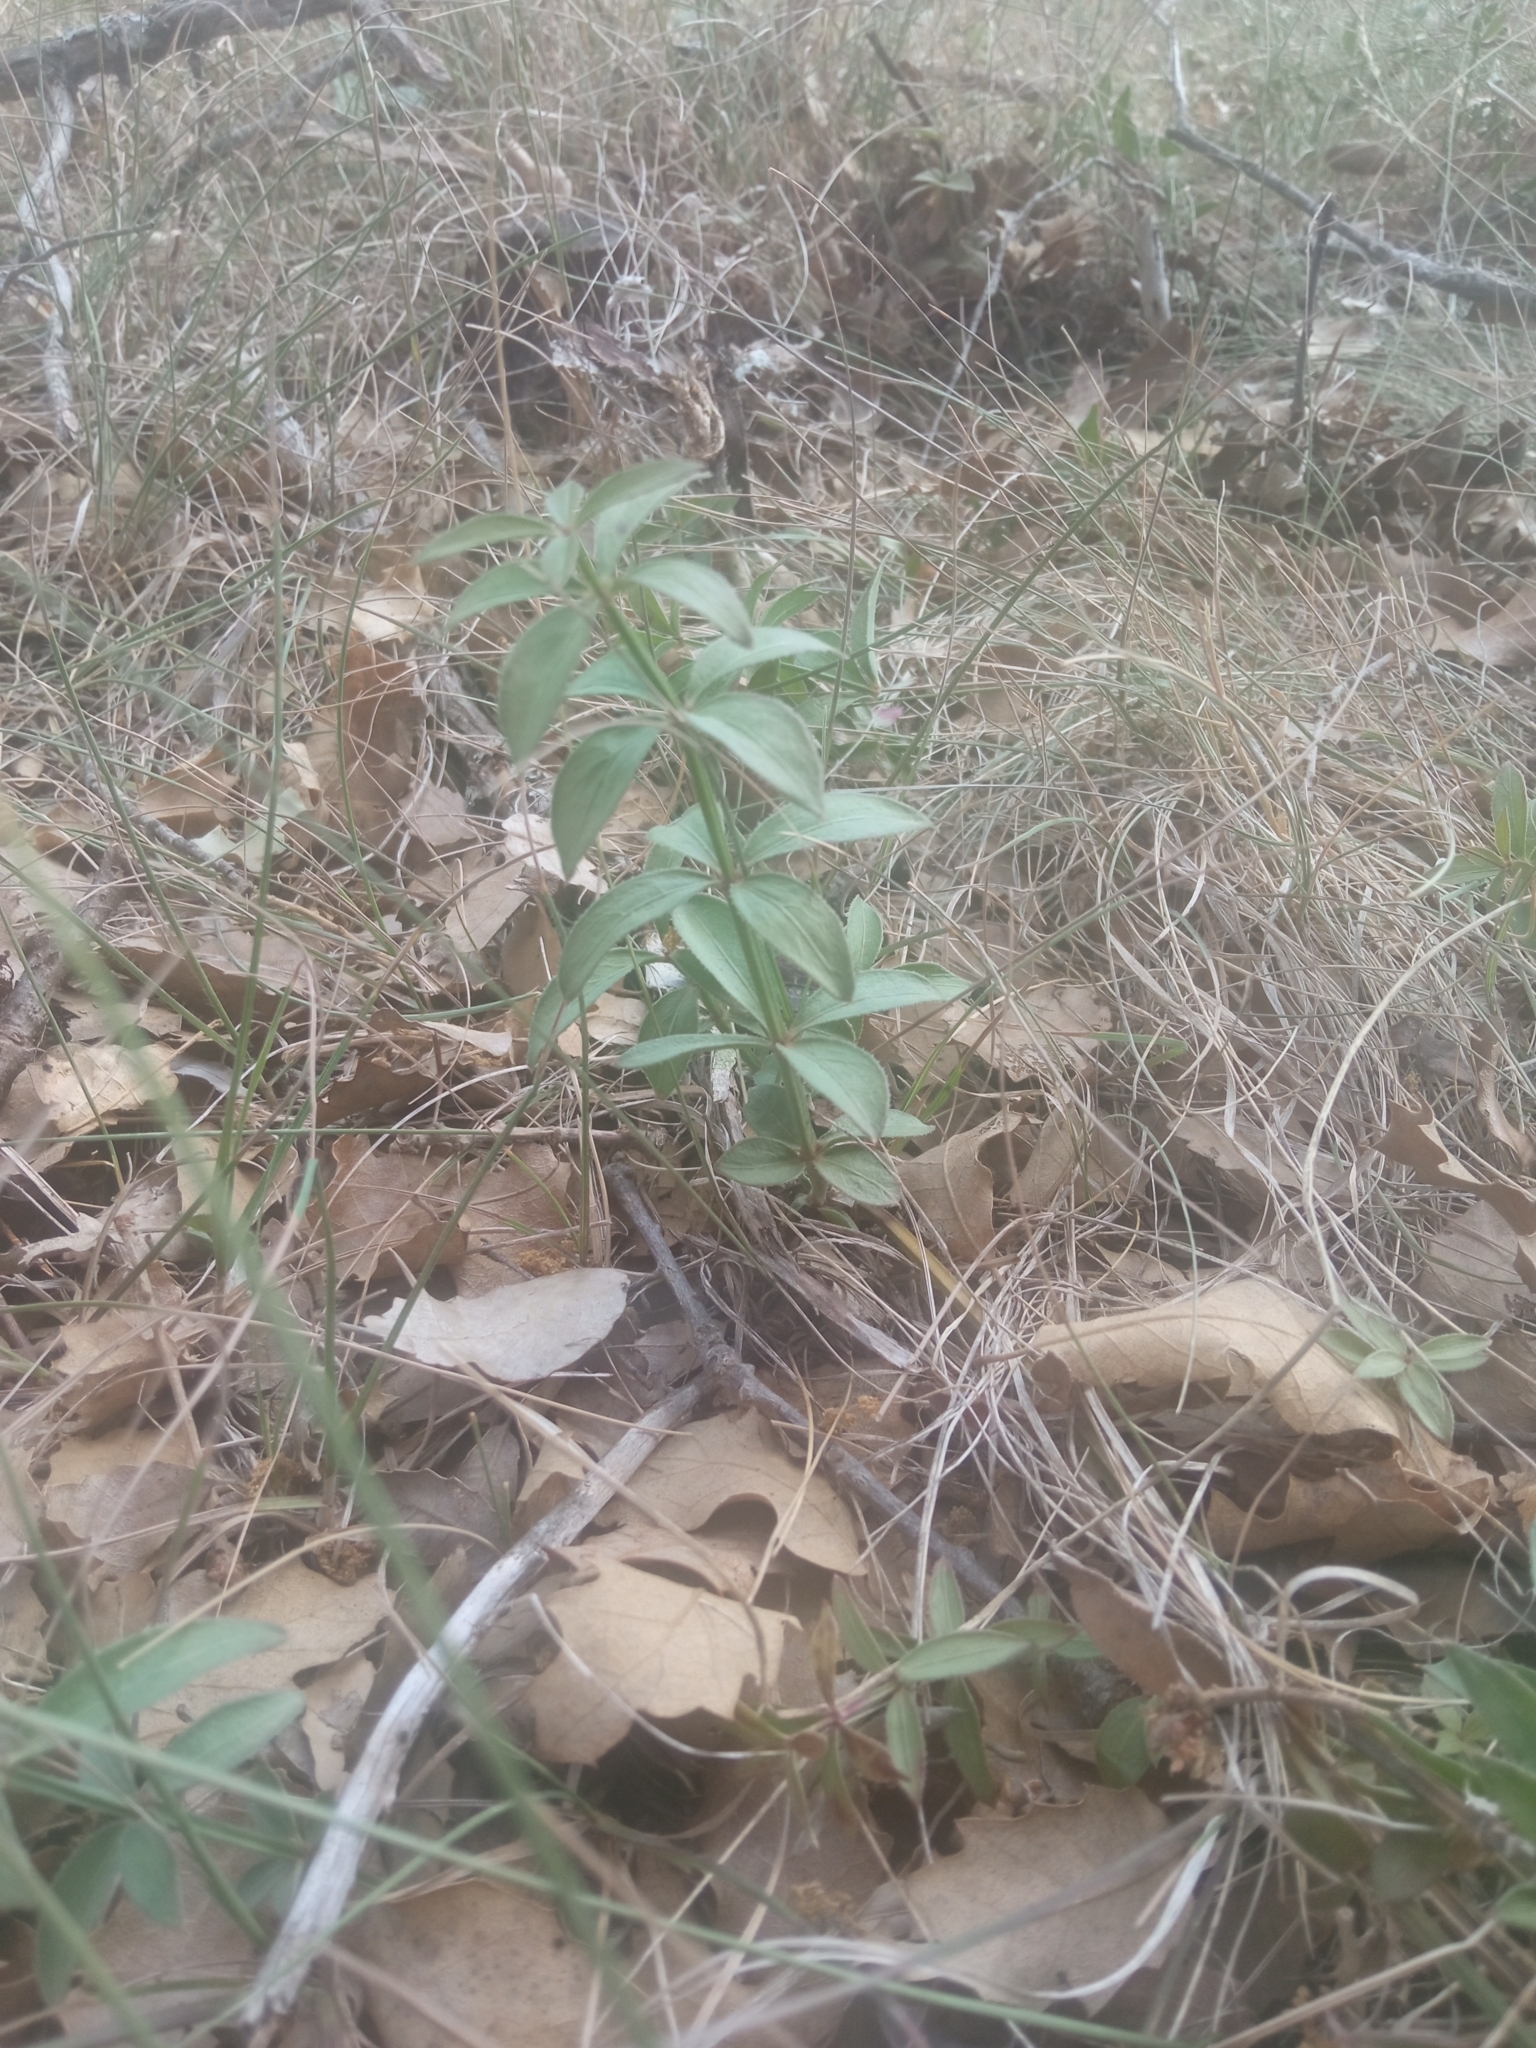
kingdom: Plantae
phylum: Tracheophyta
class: Magnoliopsida
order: Gentianales
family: Rubiaceae
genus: Rubia
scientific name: Rubia peregrina
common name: Wild madder
